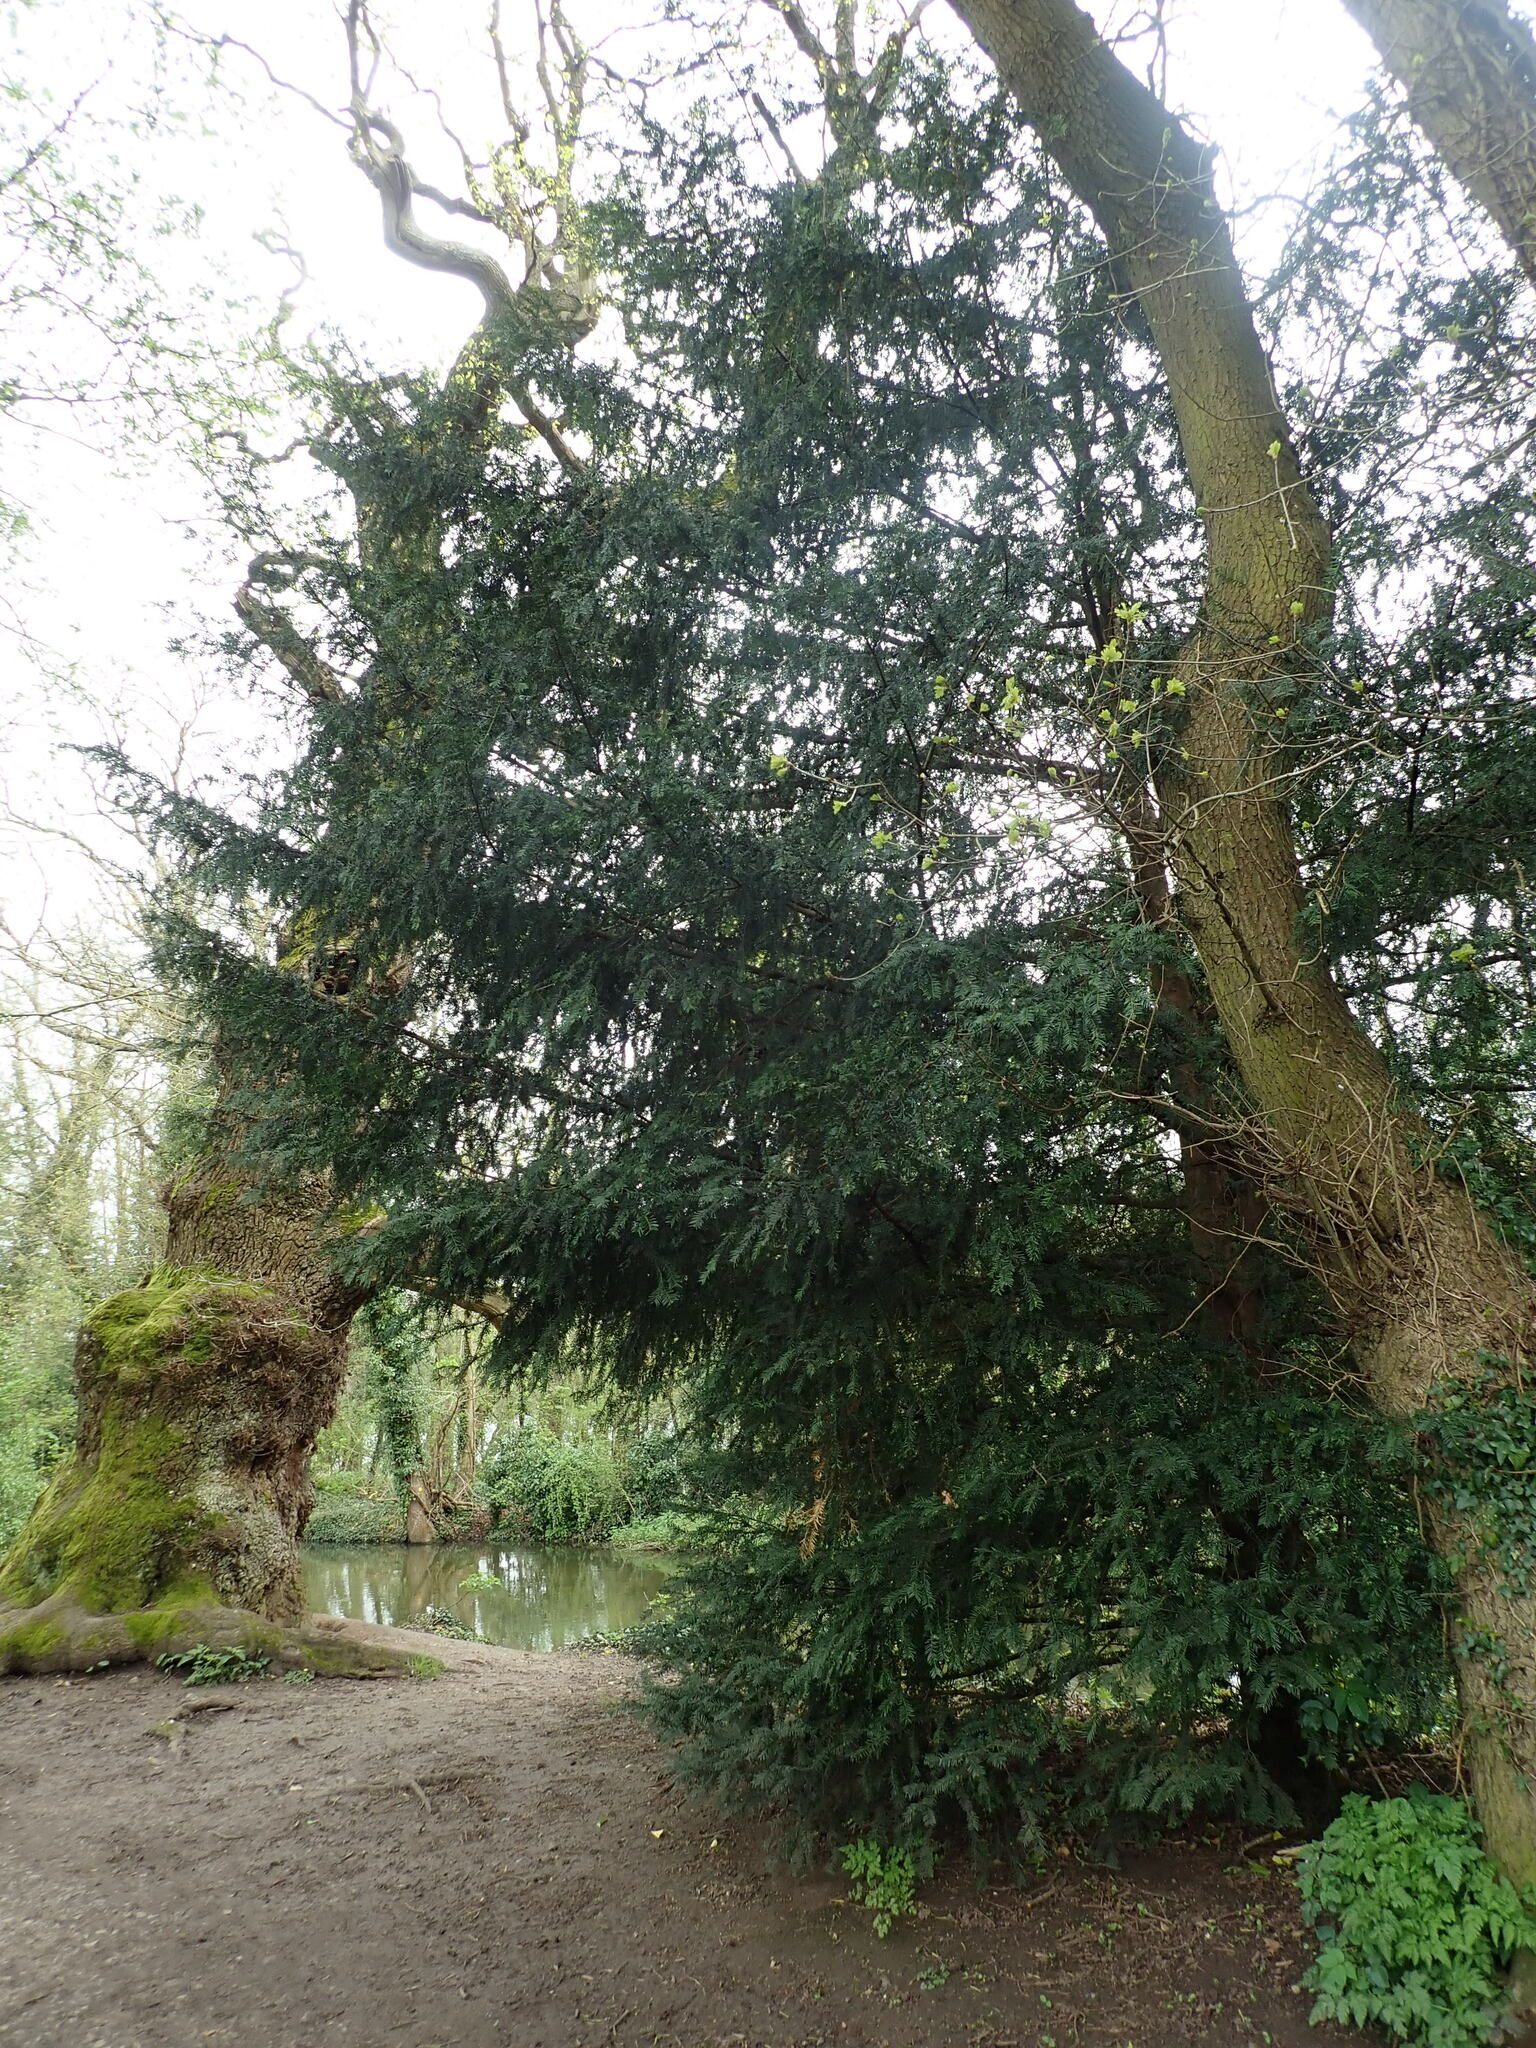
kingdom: Plantae
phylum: Tracheophyta
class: Pinopsida
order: Pinales
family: Taxaceae
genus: Taxus
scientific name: Taxus baccata
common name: Yew
